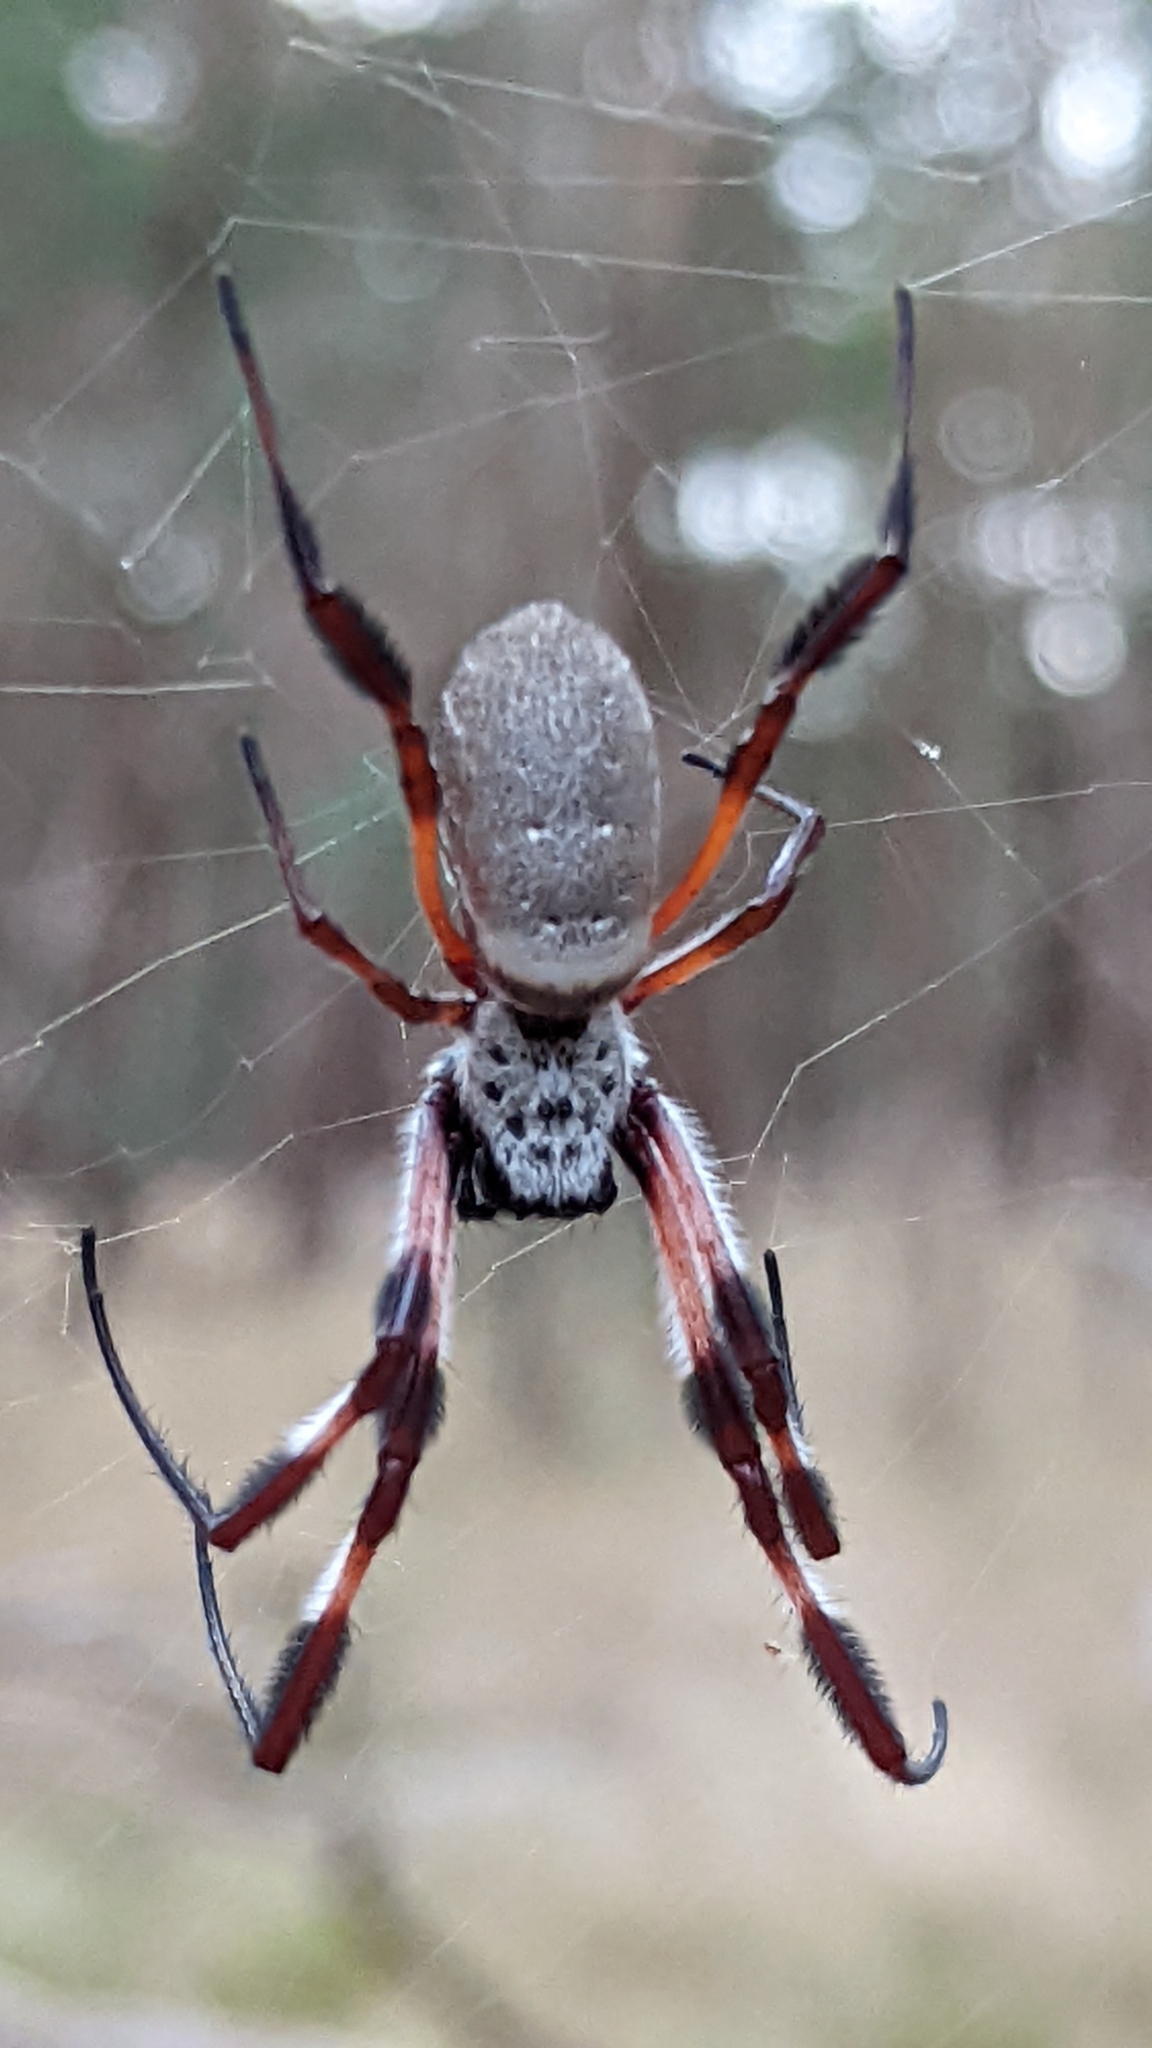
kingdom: Animalia
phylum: Arthropoda
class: Arachnida
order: Araneae
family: Araneidae
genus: Trichonephila
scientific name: Trichonephila edulis
